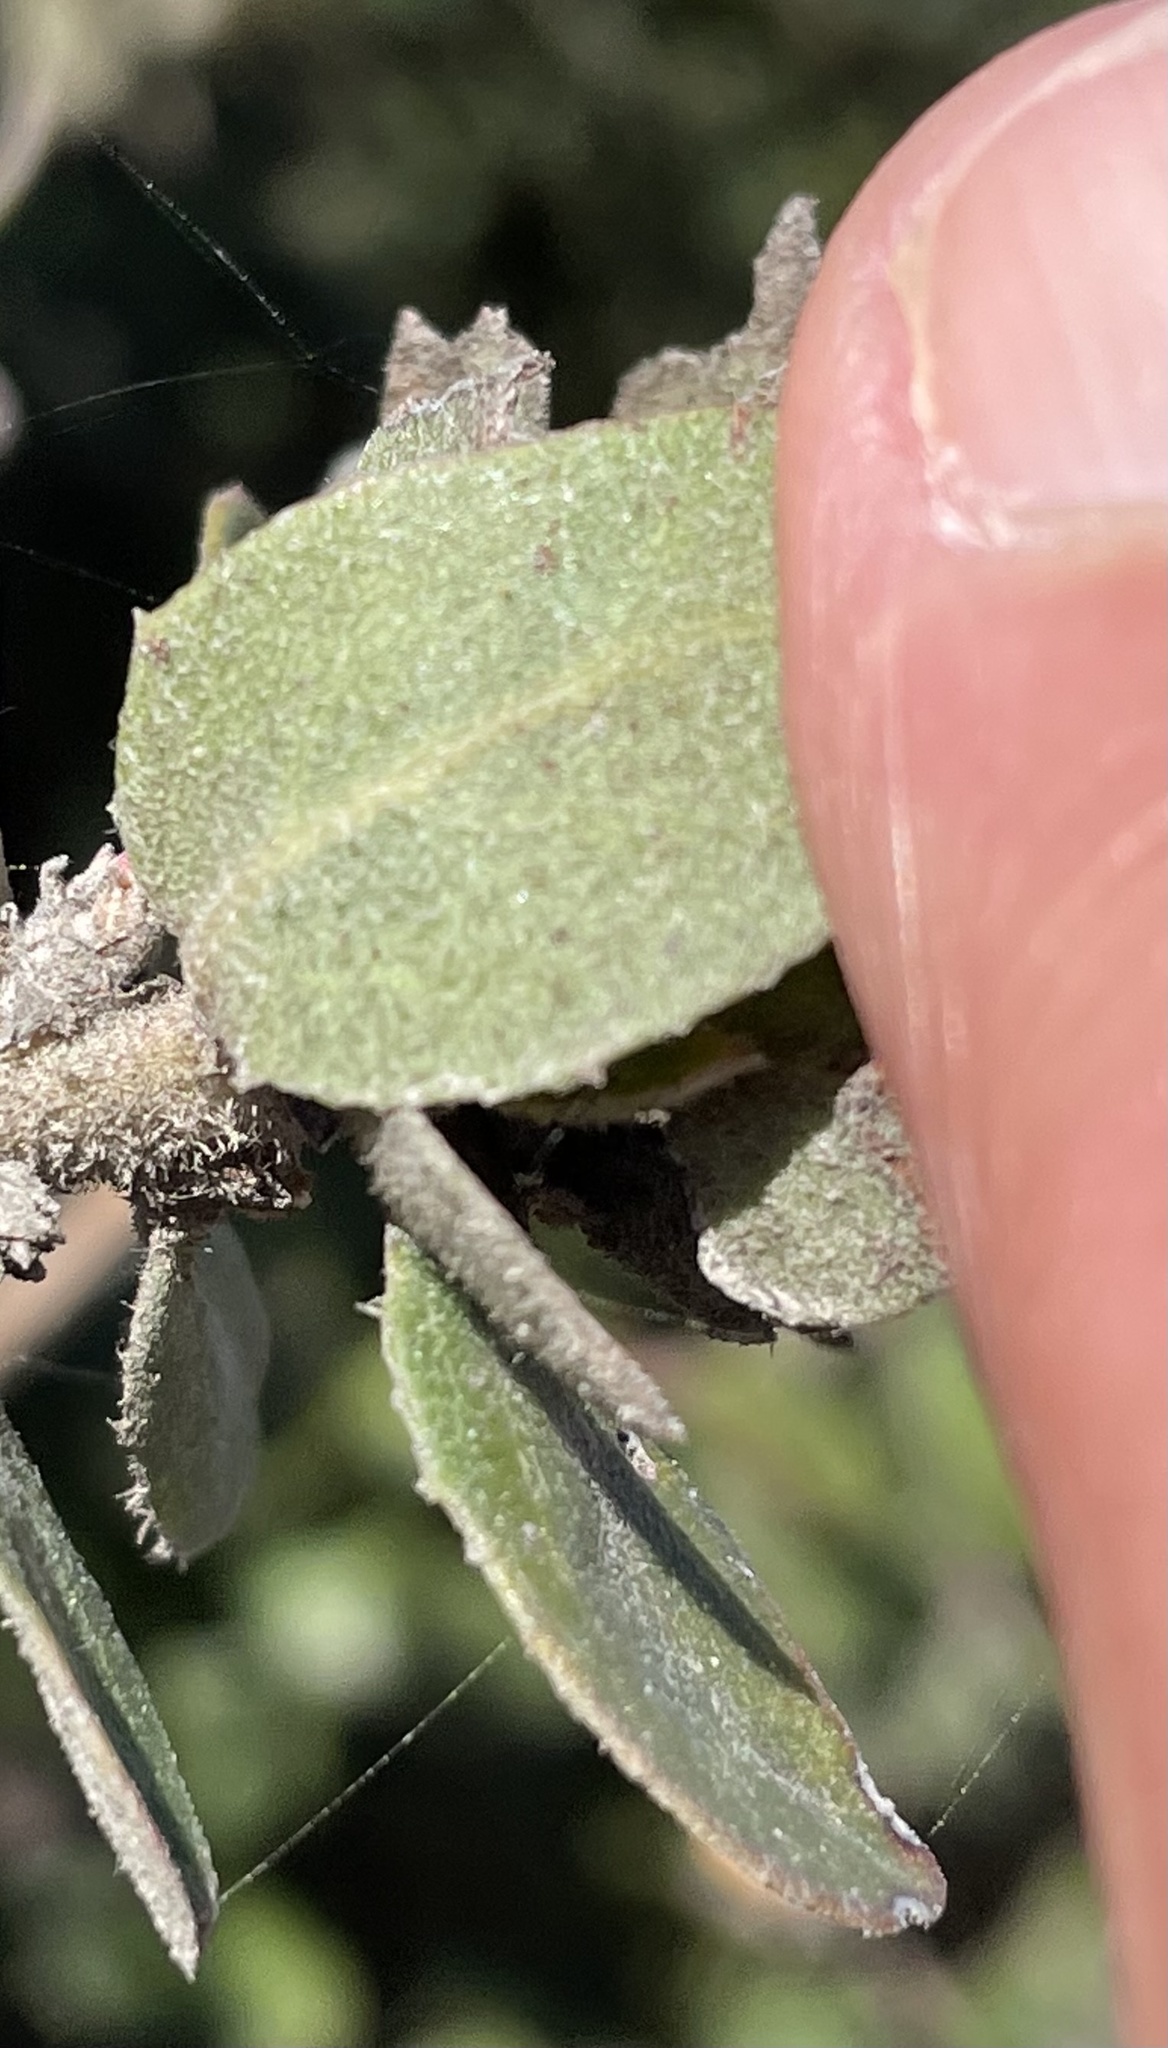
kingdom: Plantae
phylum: Tracheophyta
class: Magnoliopsida
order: Ericales
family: Ericaceae
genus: Arctostaphylos
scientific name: Arctostaphylos tomentosa
